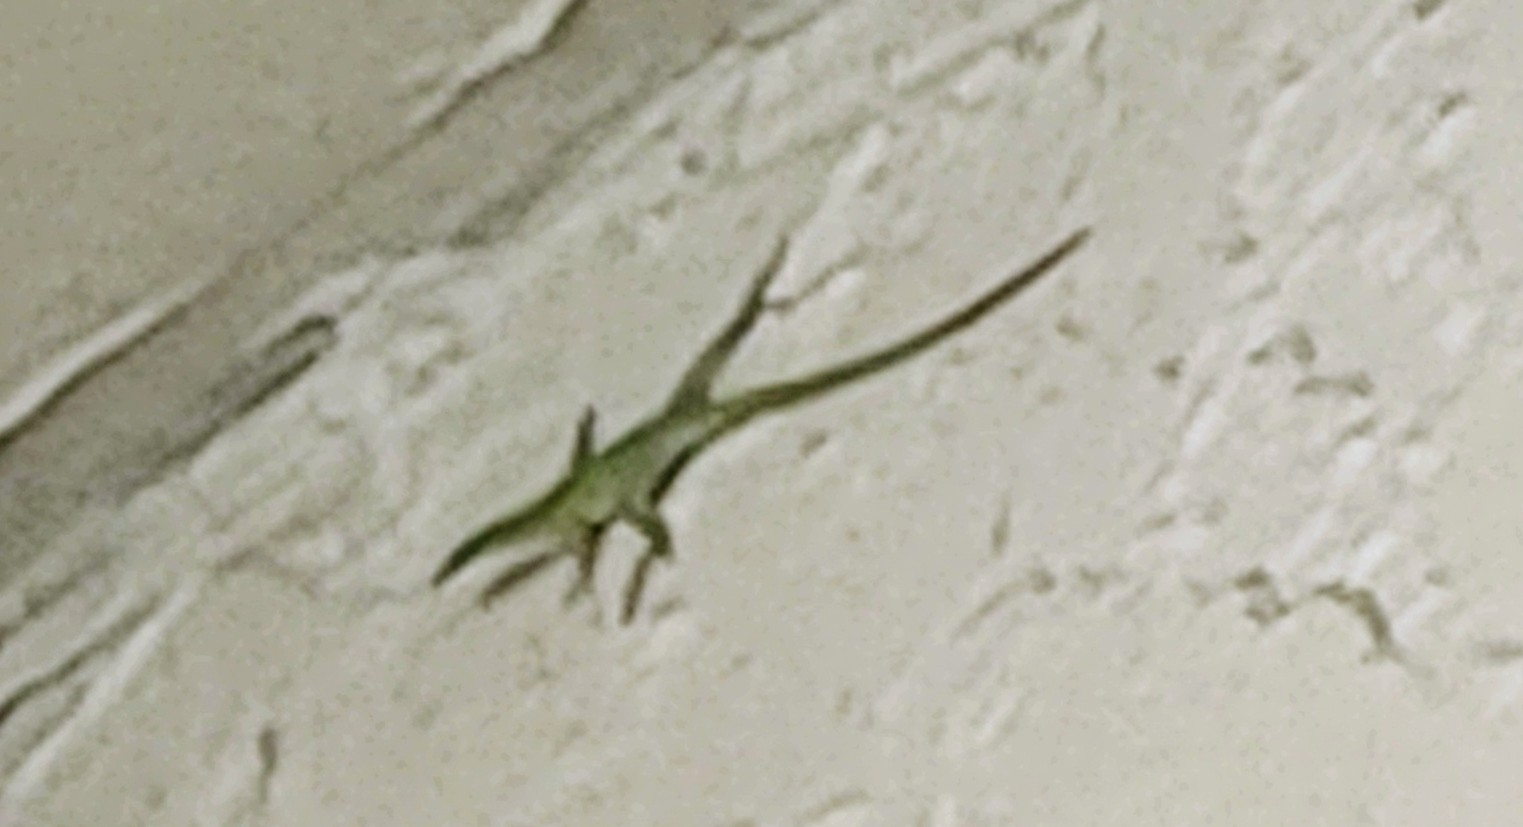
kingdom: Animalia
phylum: Chordata
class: Squamata
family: Dactyloidae
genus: Anolis
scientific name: Anolis carolinensis
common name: Green anole
